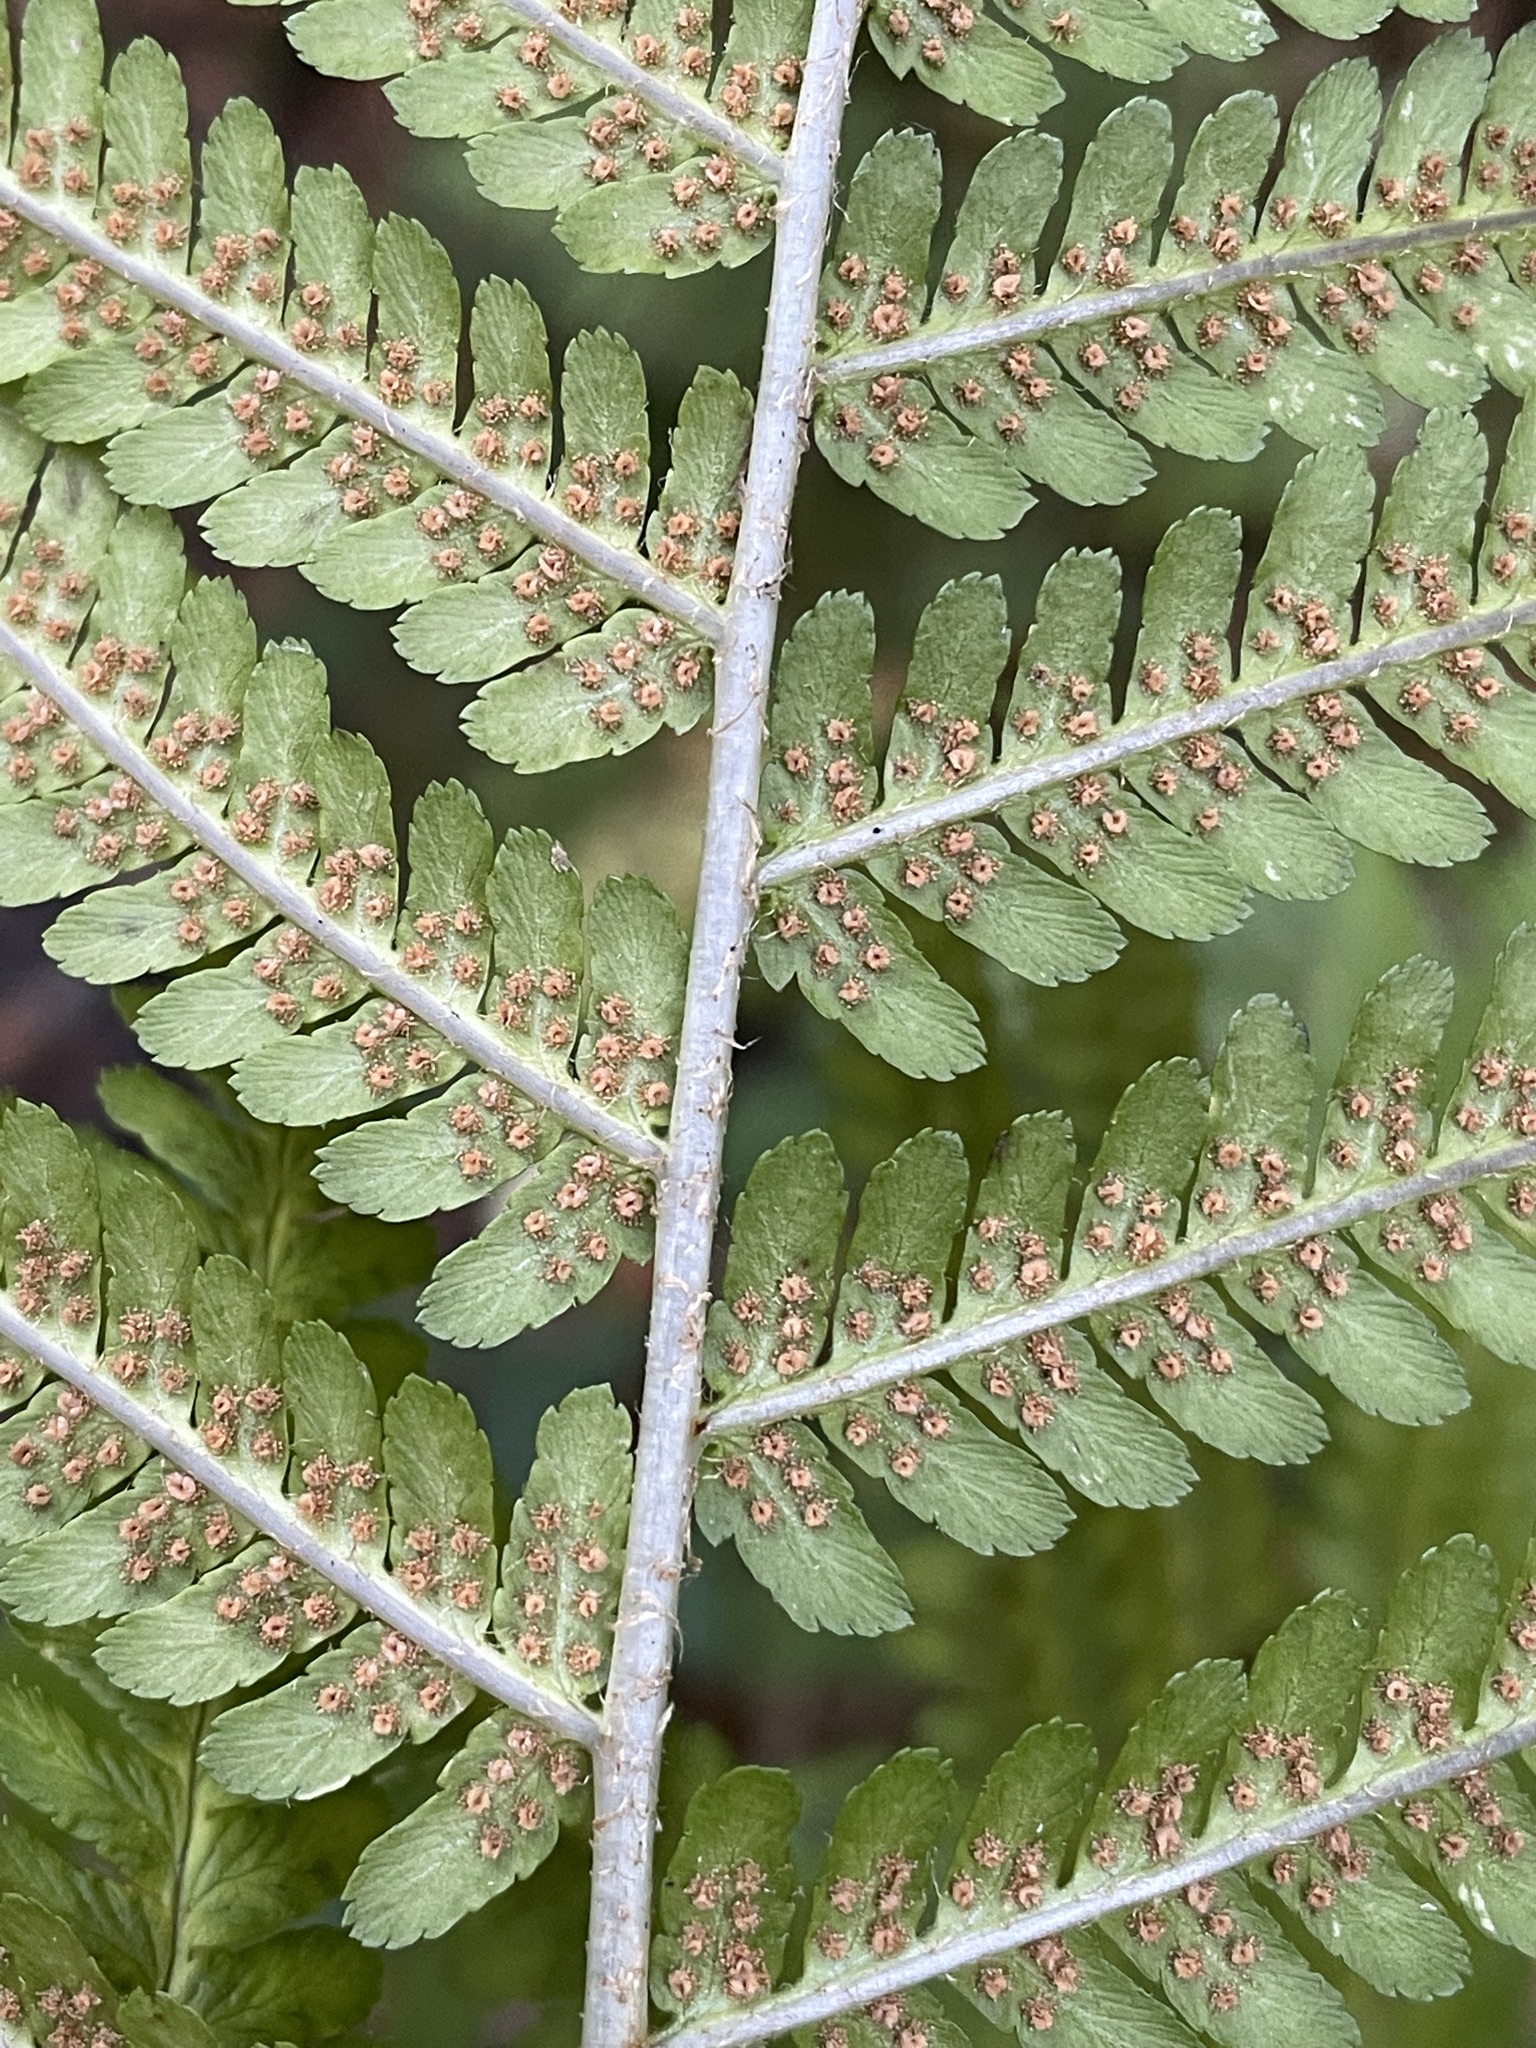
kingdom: Plantae
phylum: Tracheophyta
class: Polypodiopsida
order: Polypodiales
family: Dryopteridaceae
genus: Dryopteris
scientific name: Dryopteris filix-mas
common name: Male fern
